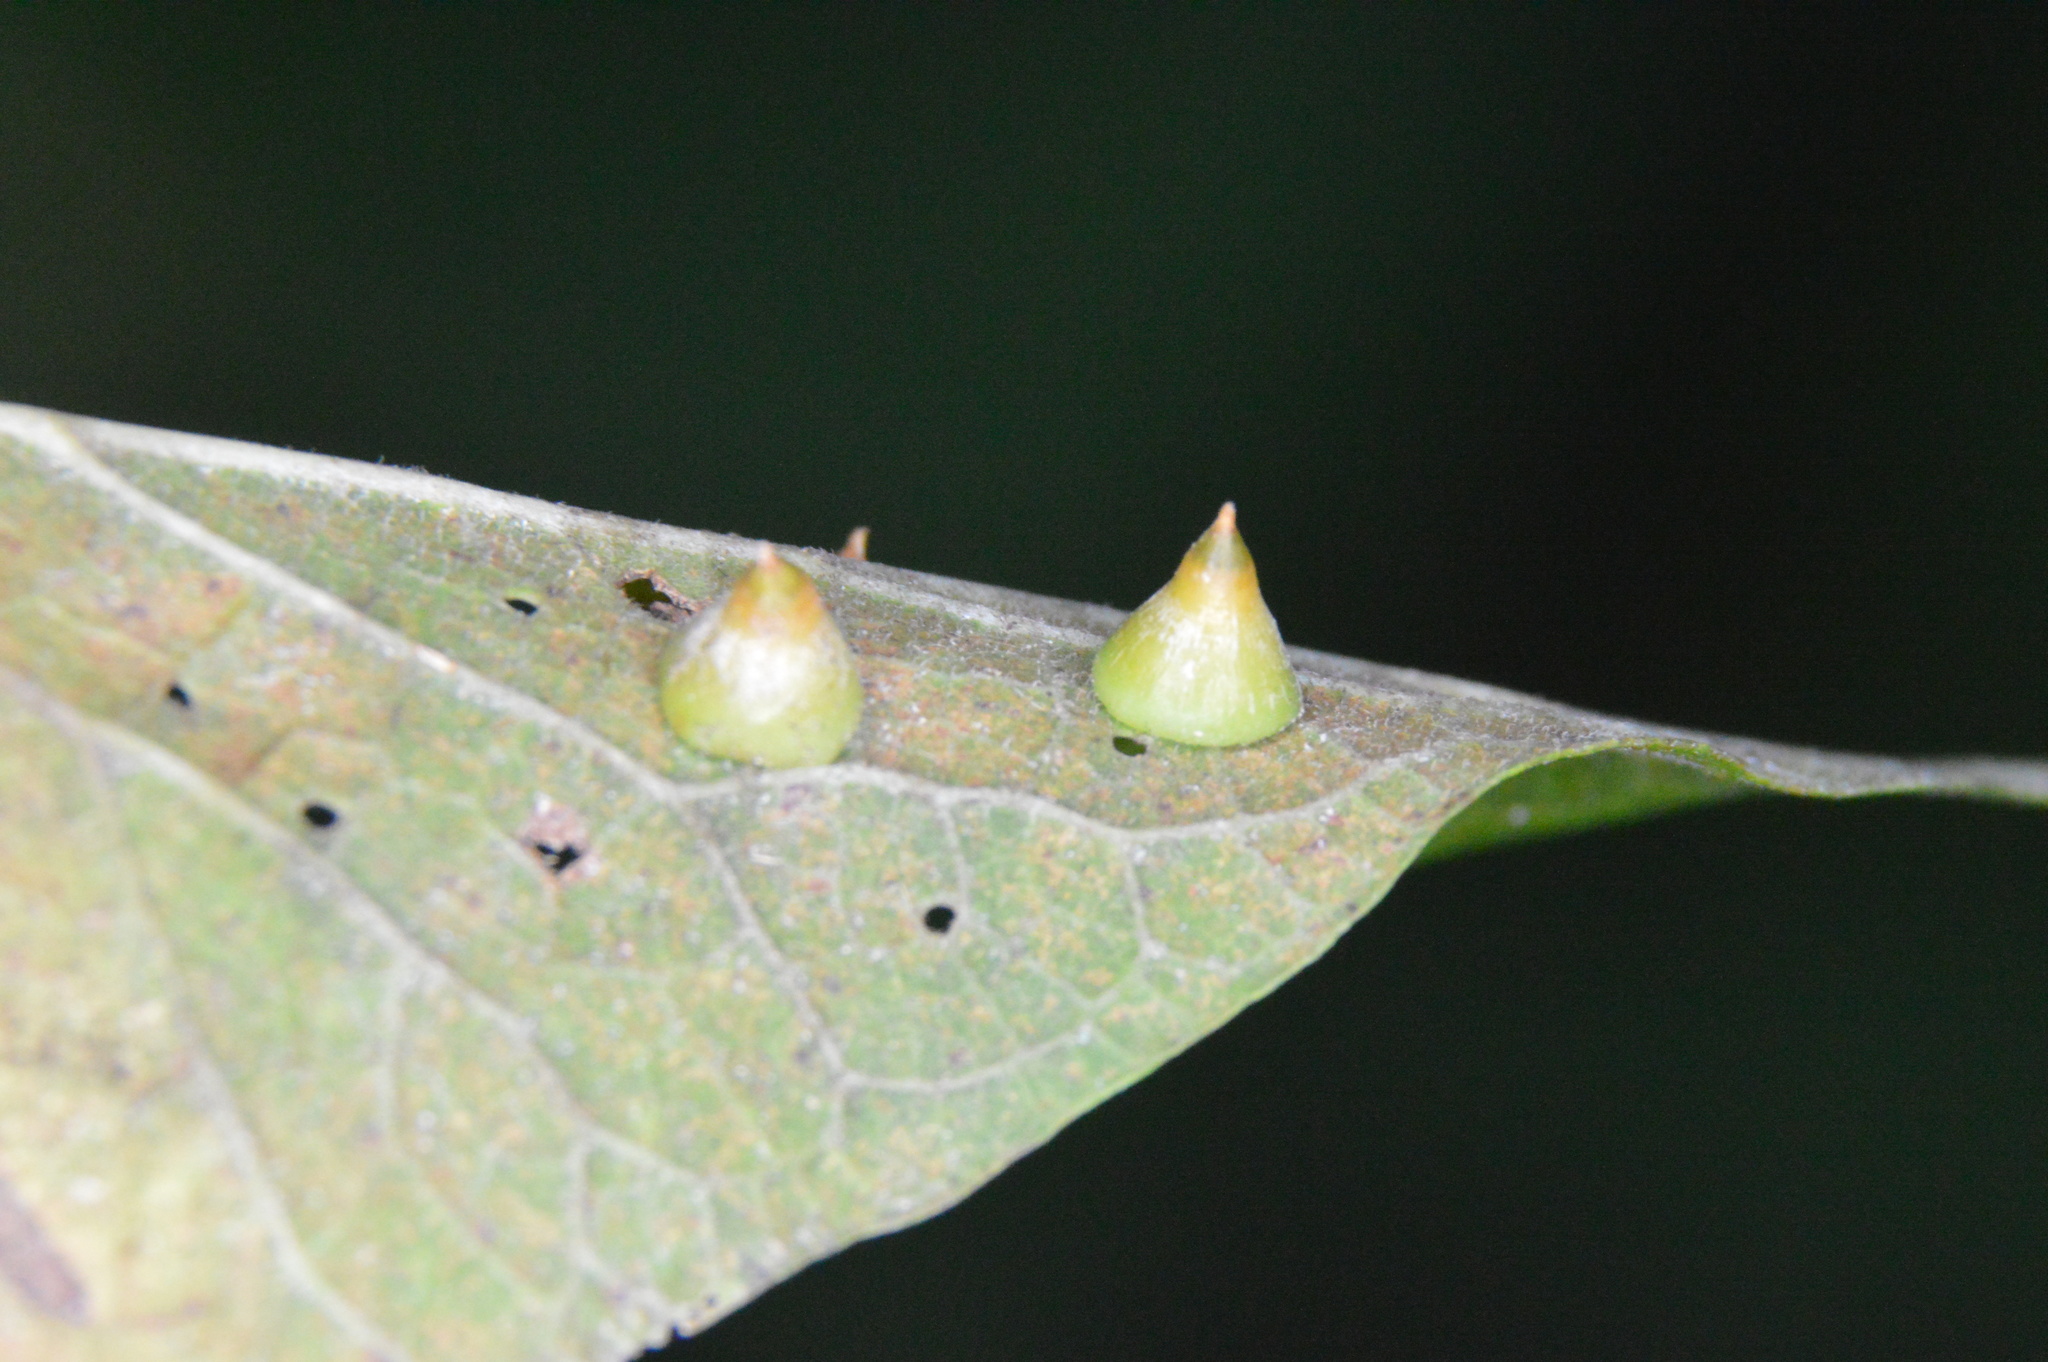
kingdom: Animalia
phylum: Arthropoda
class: Insecta
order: Diptera
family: Cecidomyiidae
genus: Celticecis
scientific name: Celticecis spiniformis
